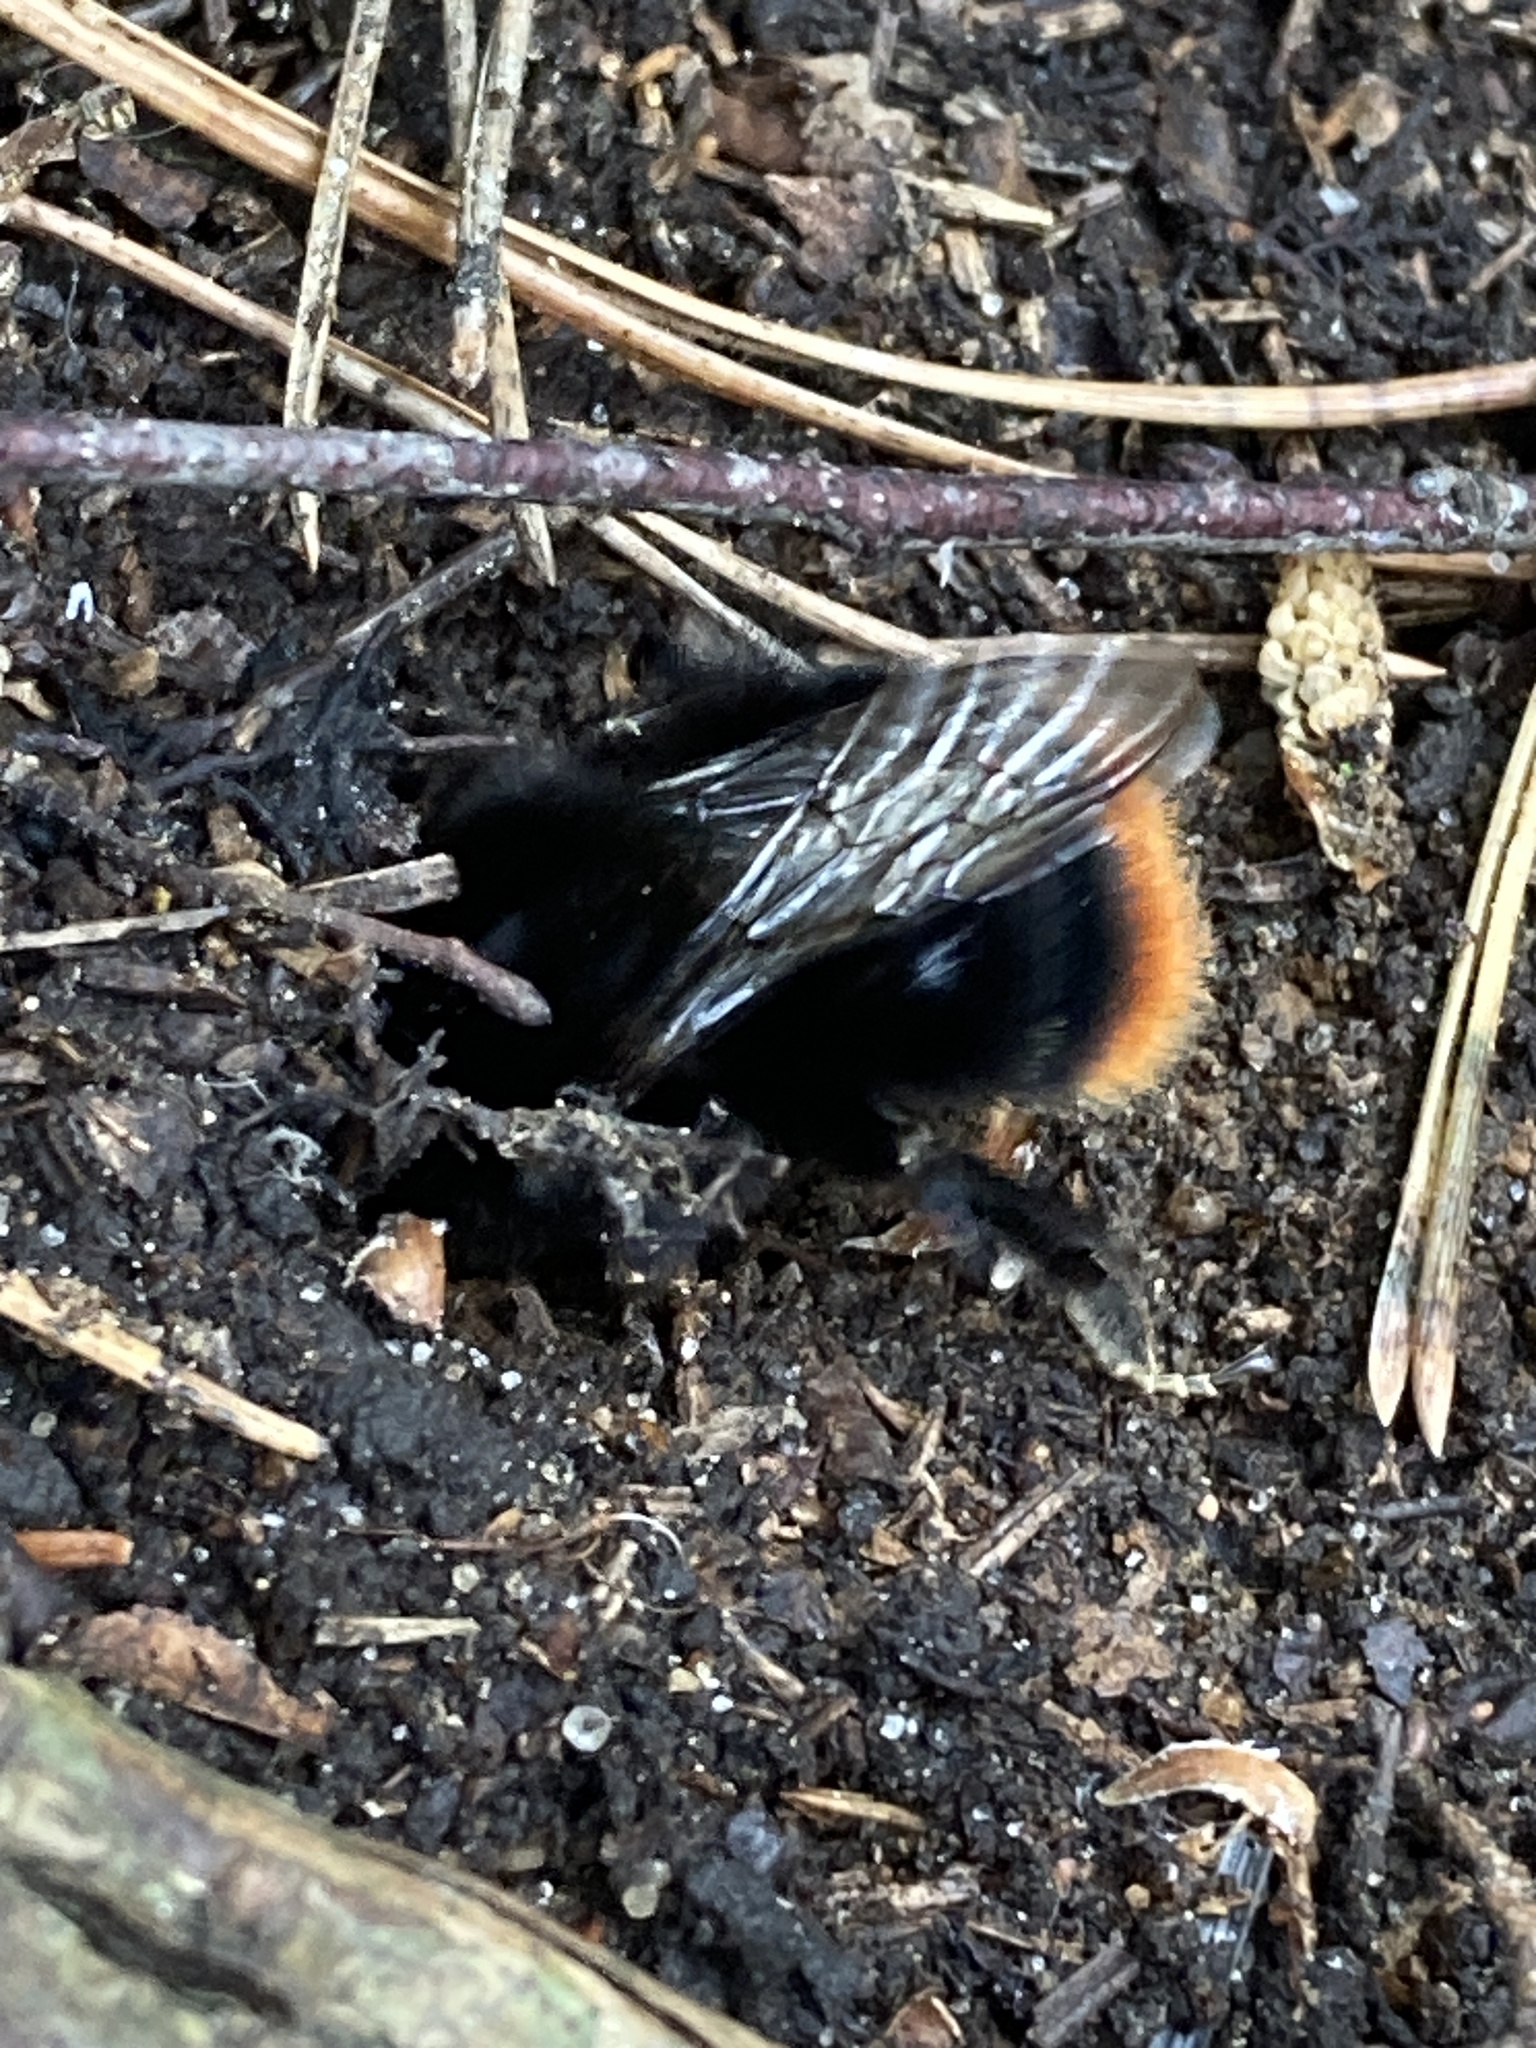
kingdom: Animalia
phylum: Arthropoda
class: Insecta
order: Hymenoptera
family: Apidae
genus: Bombus
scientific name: Bombus lapidarius
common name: Large red-tailed humble-bee
